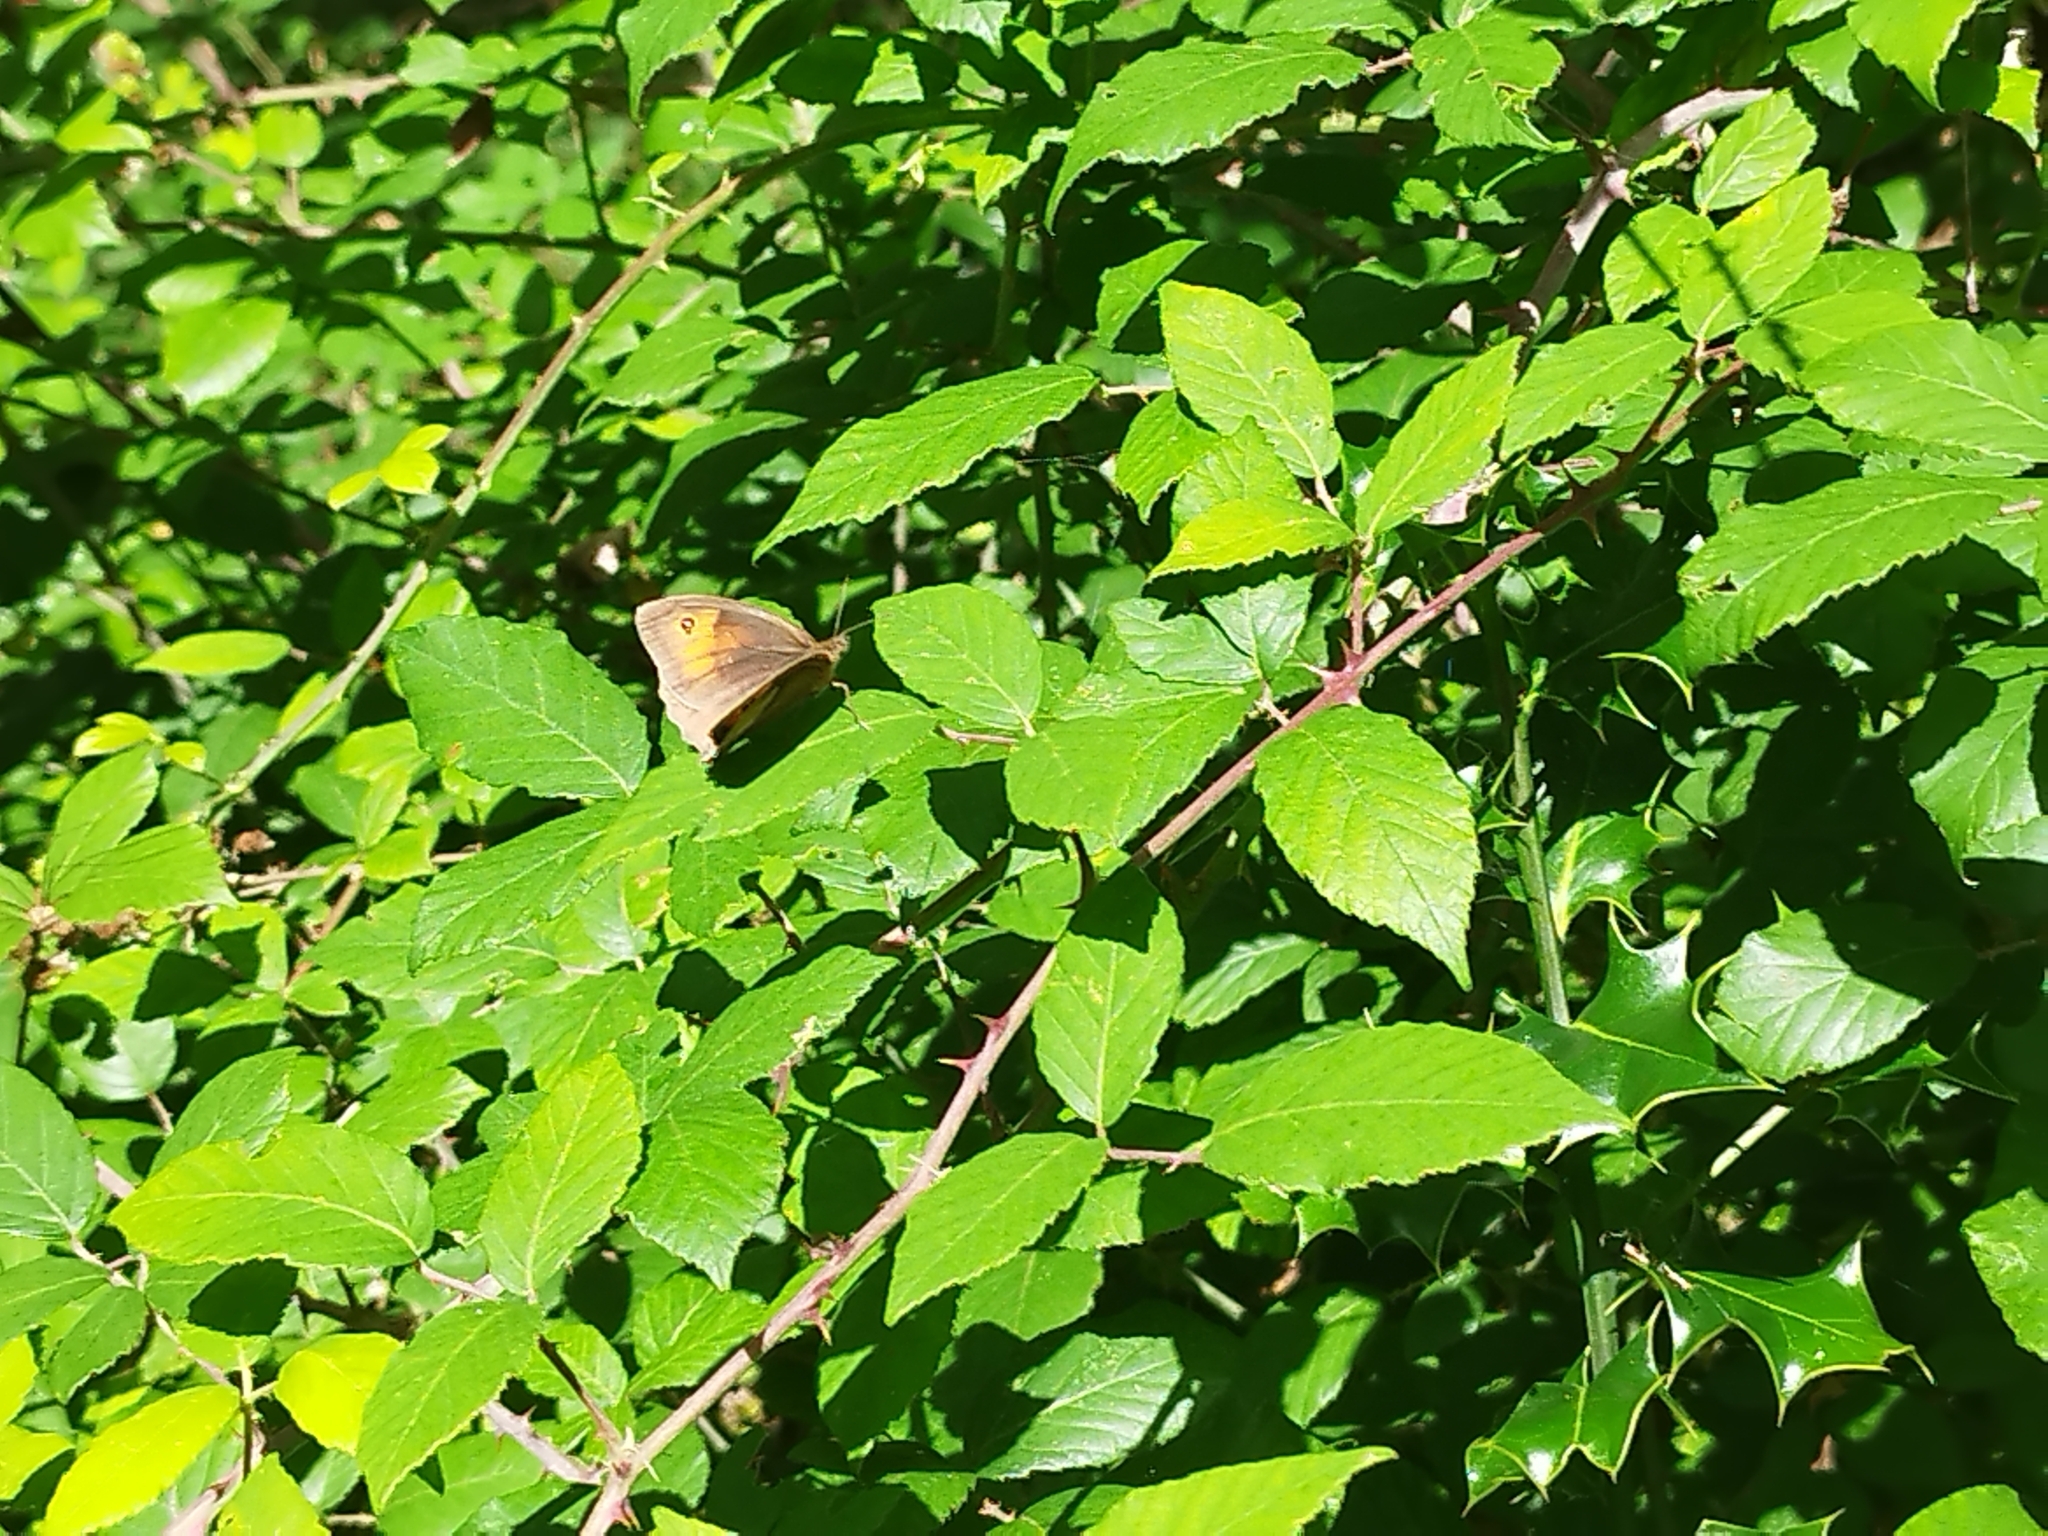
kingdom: Animalia
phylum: Arthropoda
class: Insecta
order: Lepidoptera
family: Nymphalidae
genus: Maniola
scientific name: Maniola jurtina
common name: Meadow brown
